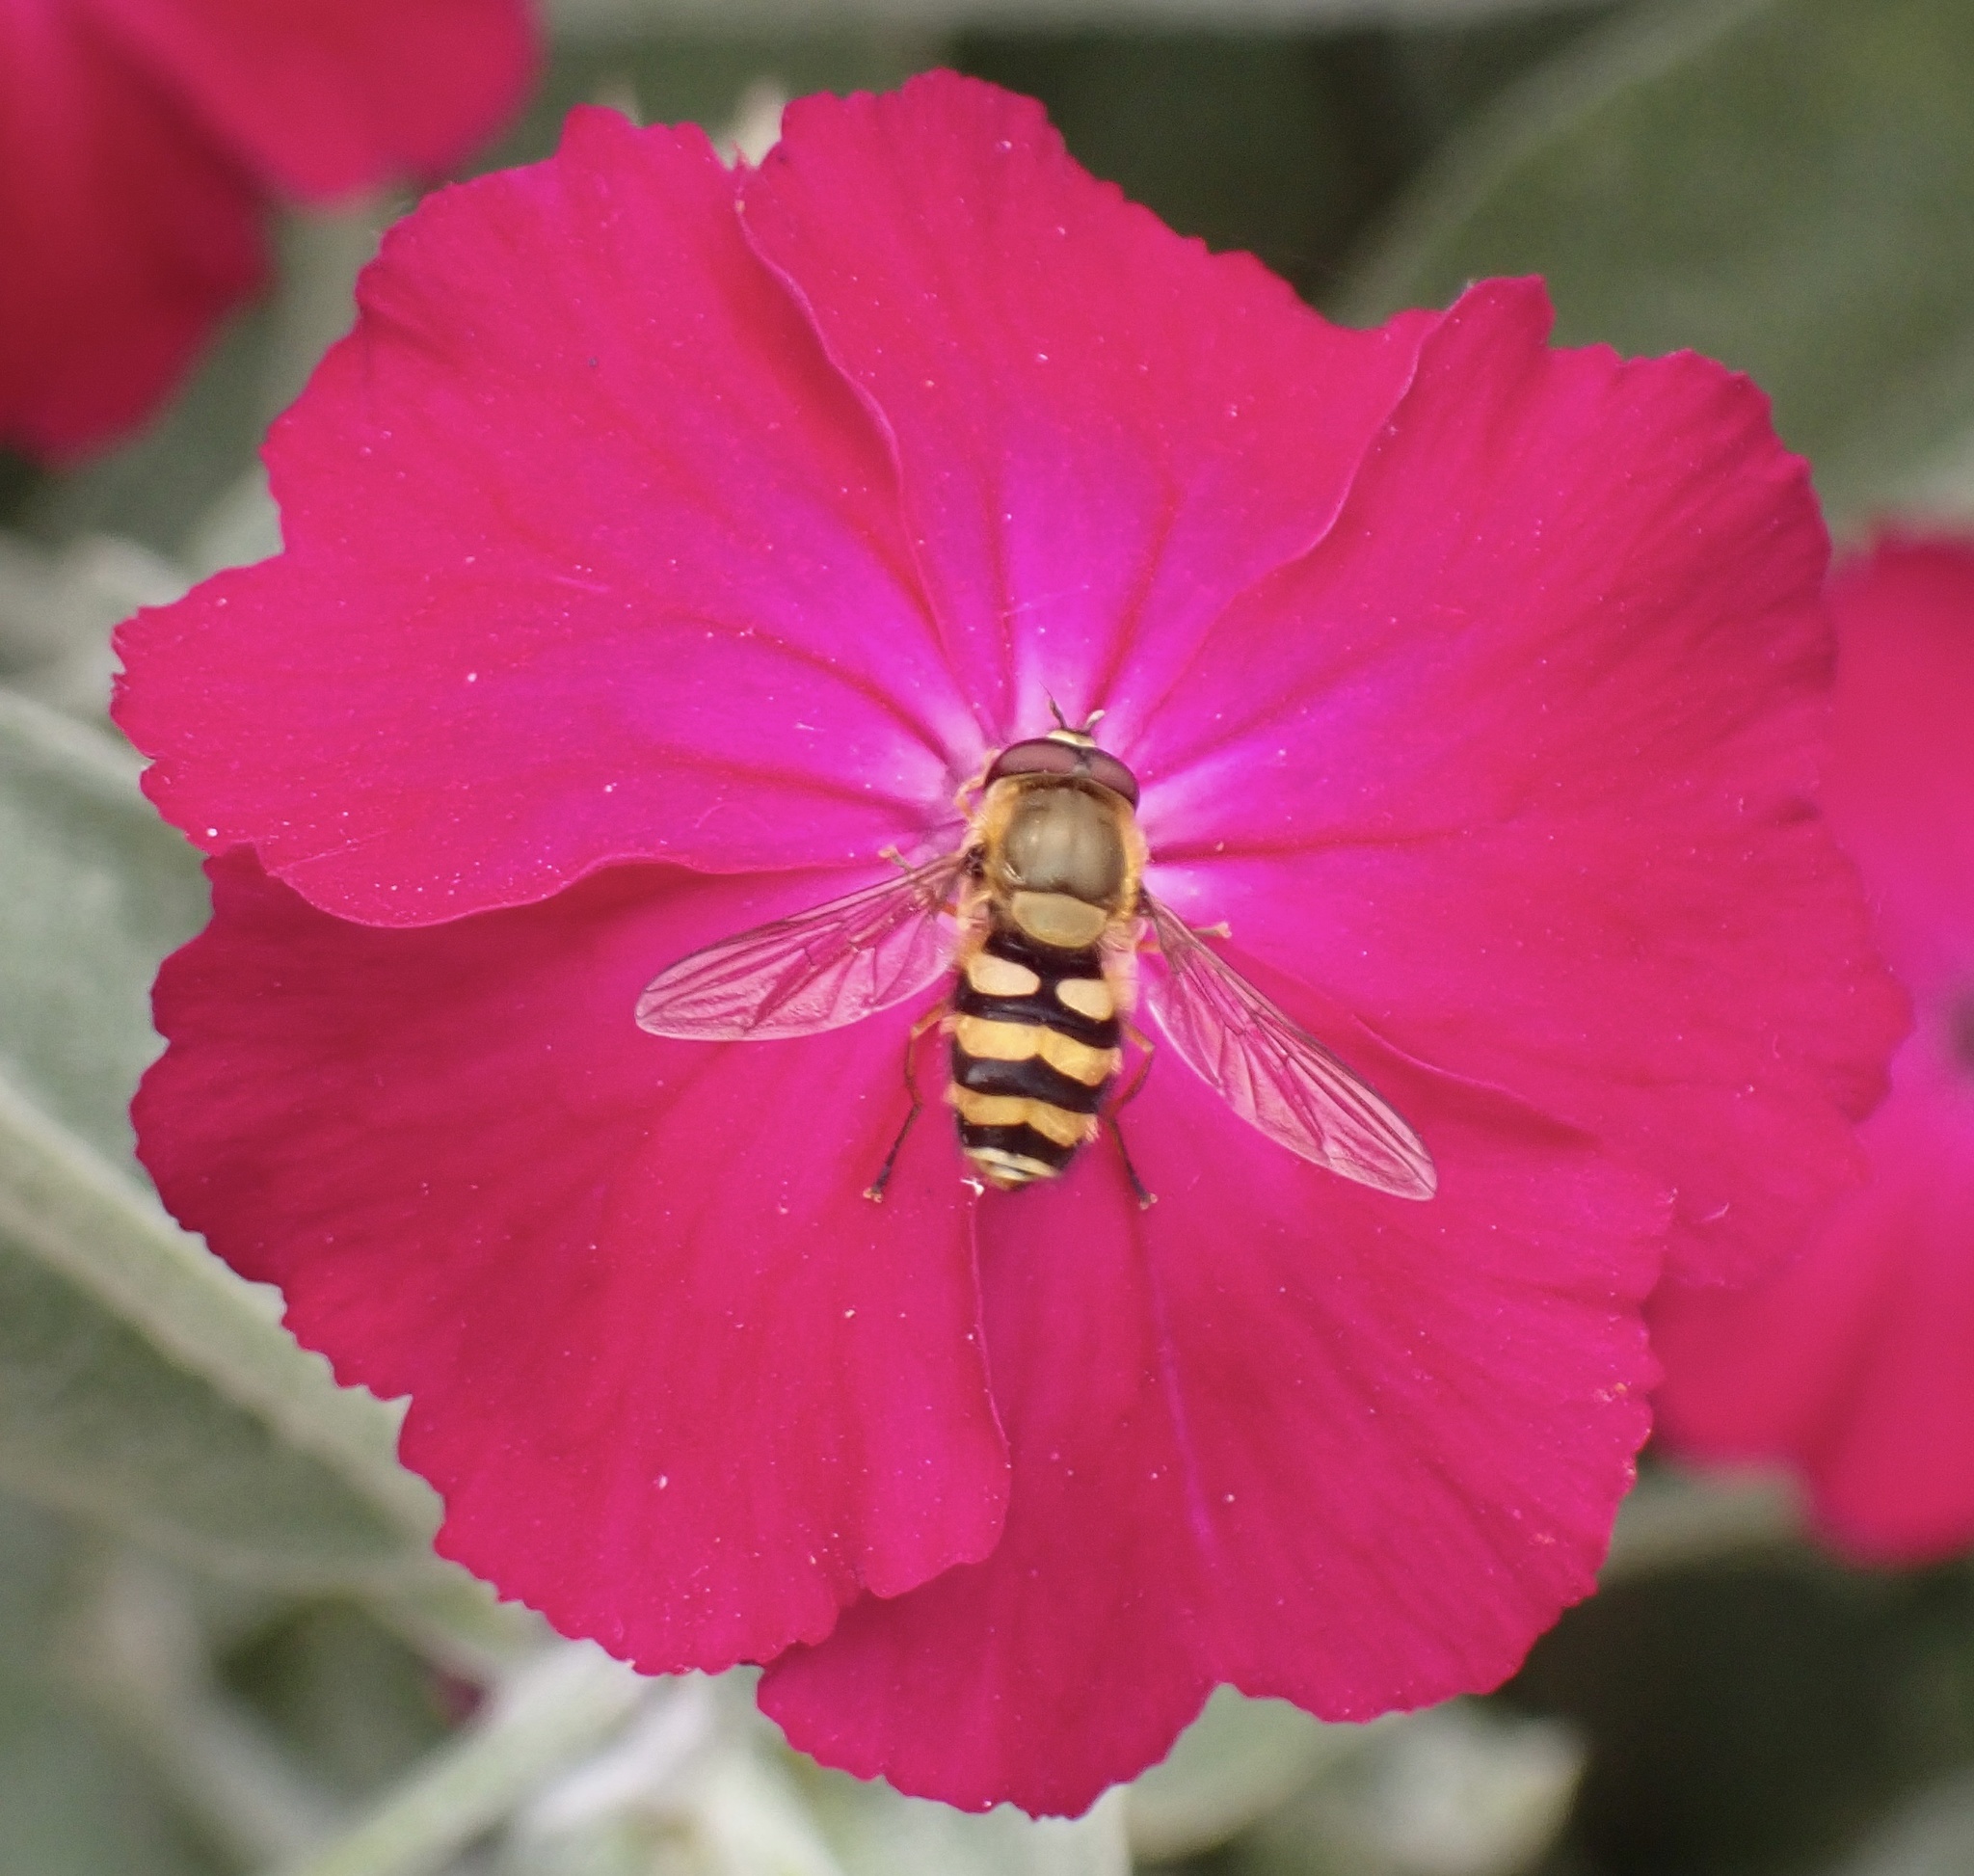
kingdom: Animalia
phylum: Arthropoda
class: Insecta
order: Diptera
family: Syrphidae
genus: Syrphus
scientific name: Syrphus
